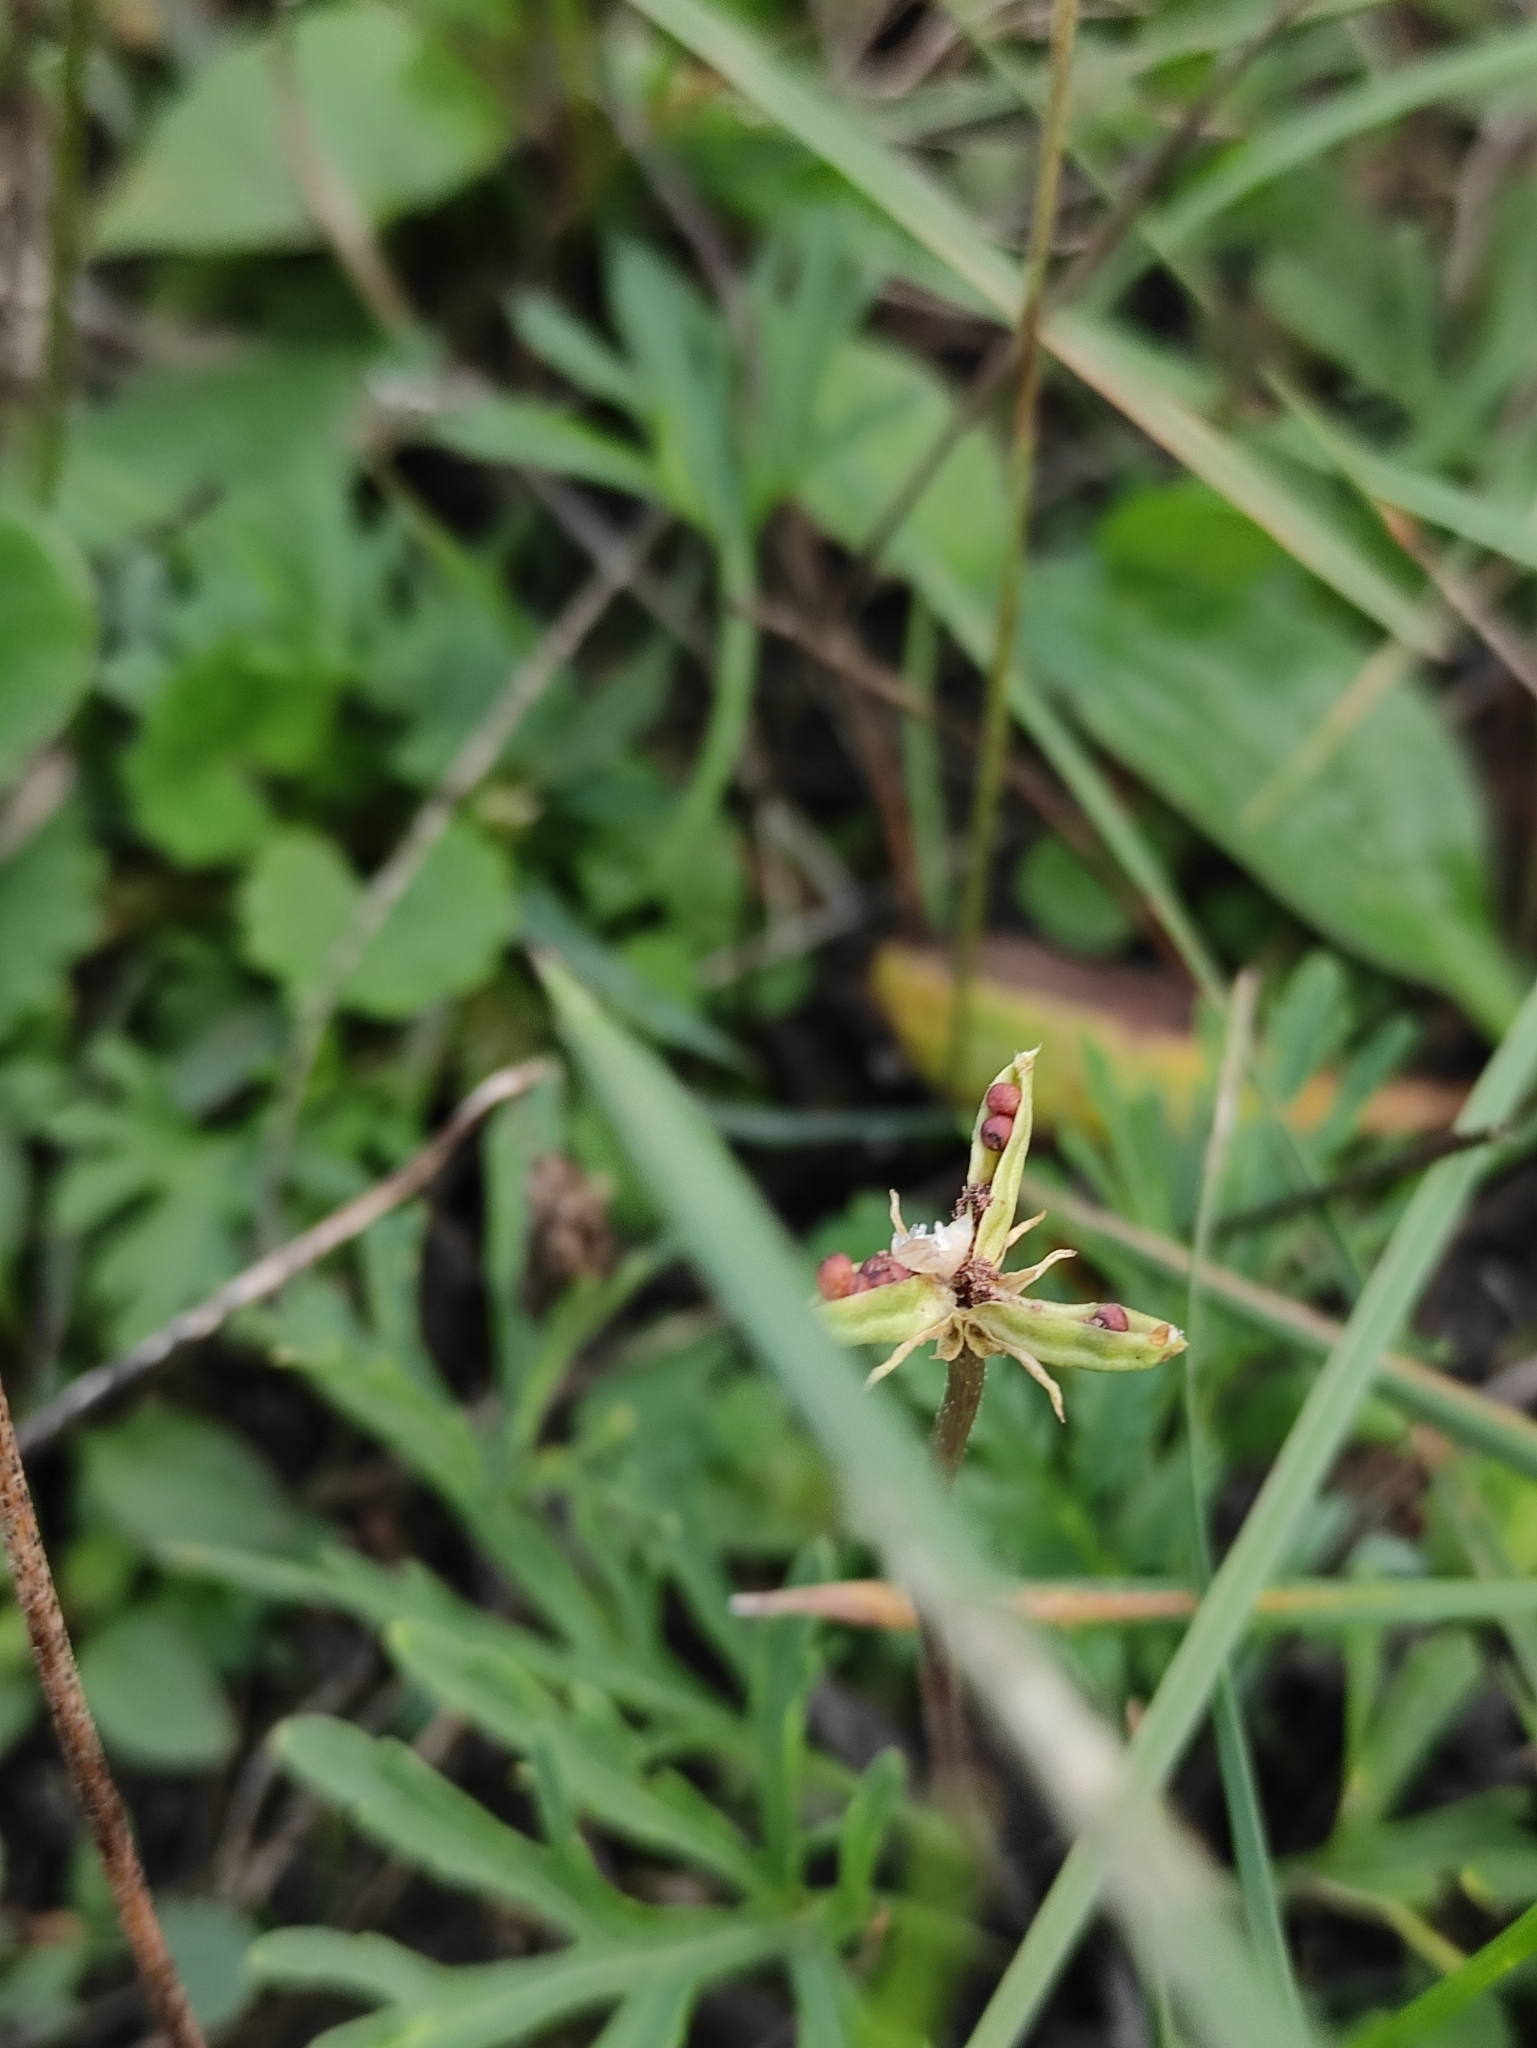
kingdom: Plantae
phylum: Tracheophyta
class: Magnoliopsida
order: Malpighiales
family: Violaceae
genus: Viola
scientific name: Viola multifida
